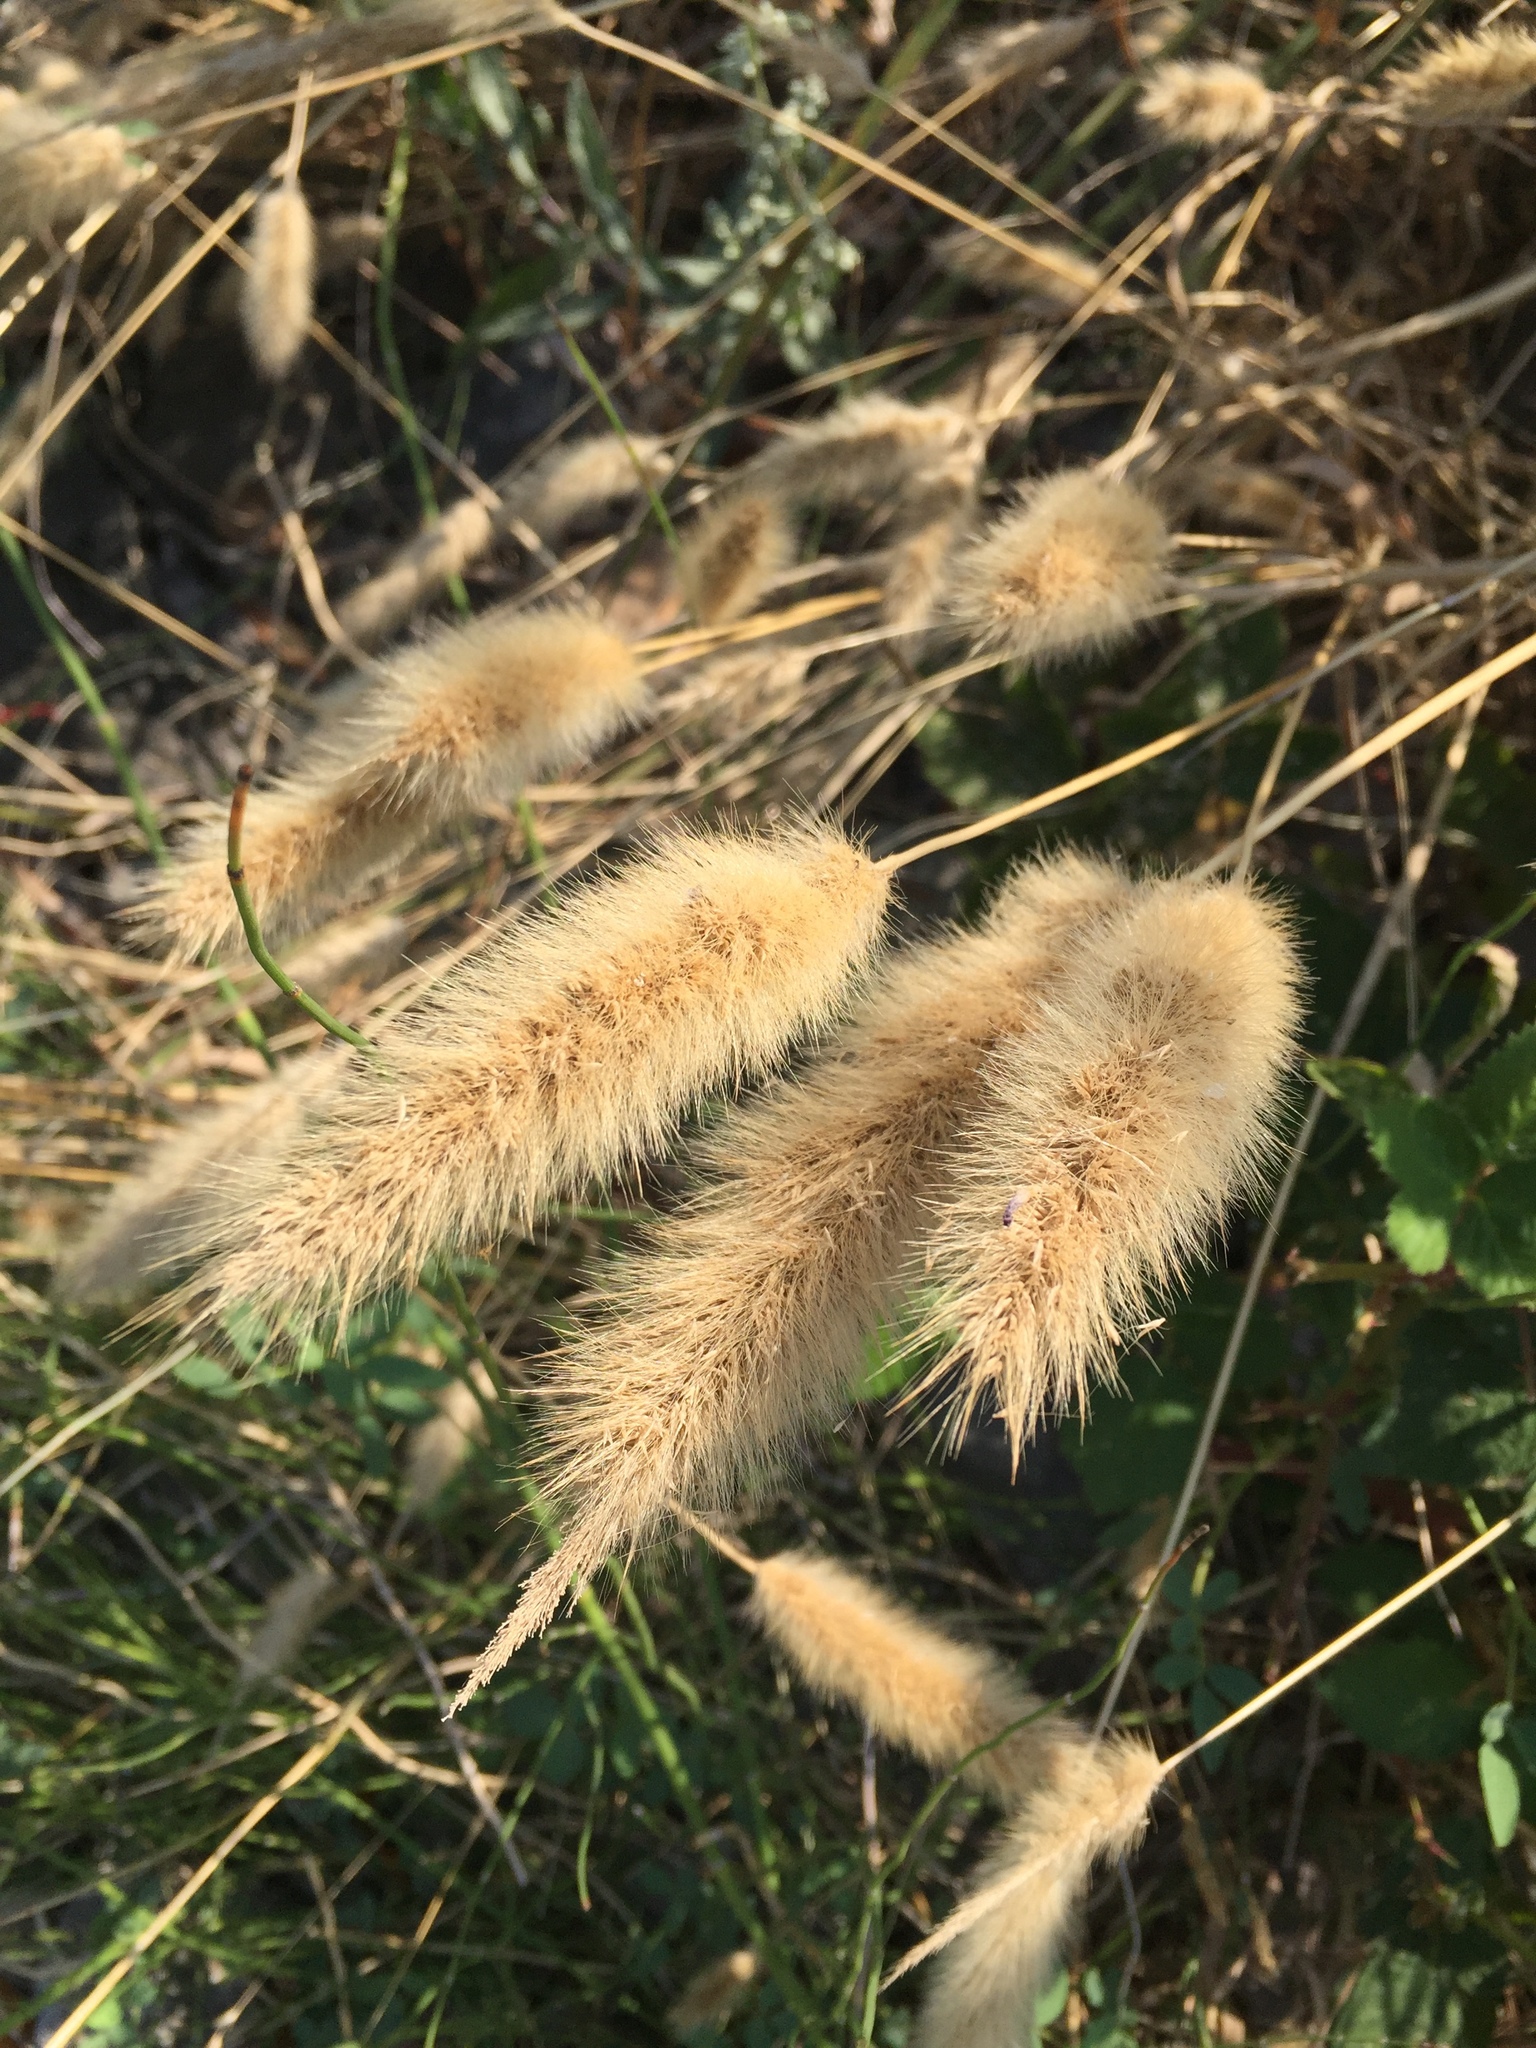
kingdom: Plantae
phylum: Tracheophyta
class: Liliopsida
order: Poales
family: Poaceae
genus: Polypogon
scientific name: Polypogon monspeliensis
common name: Annual rabbitsfoot grass
